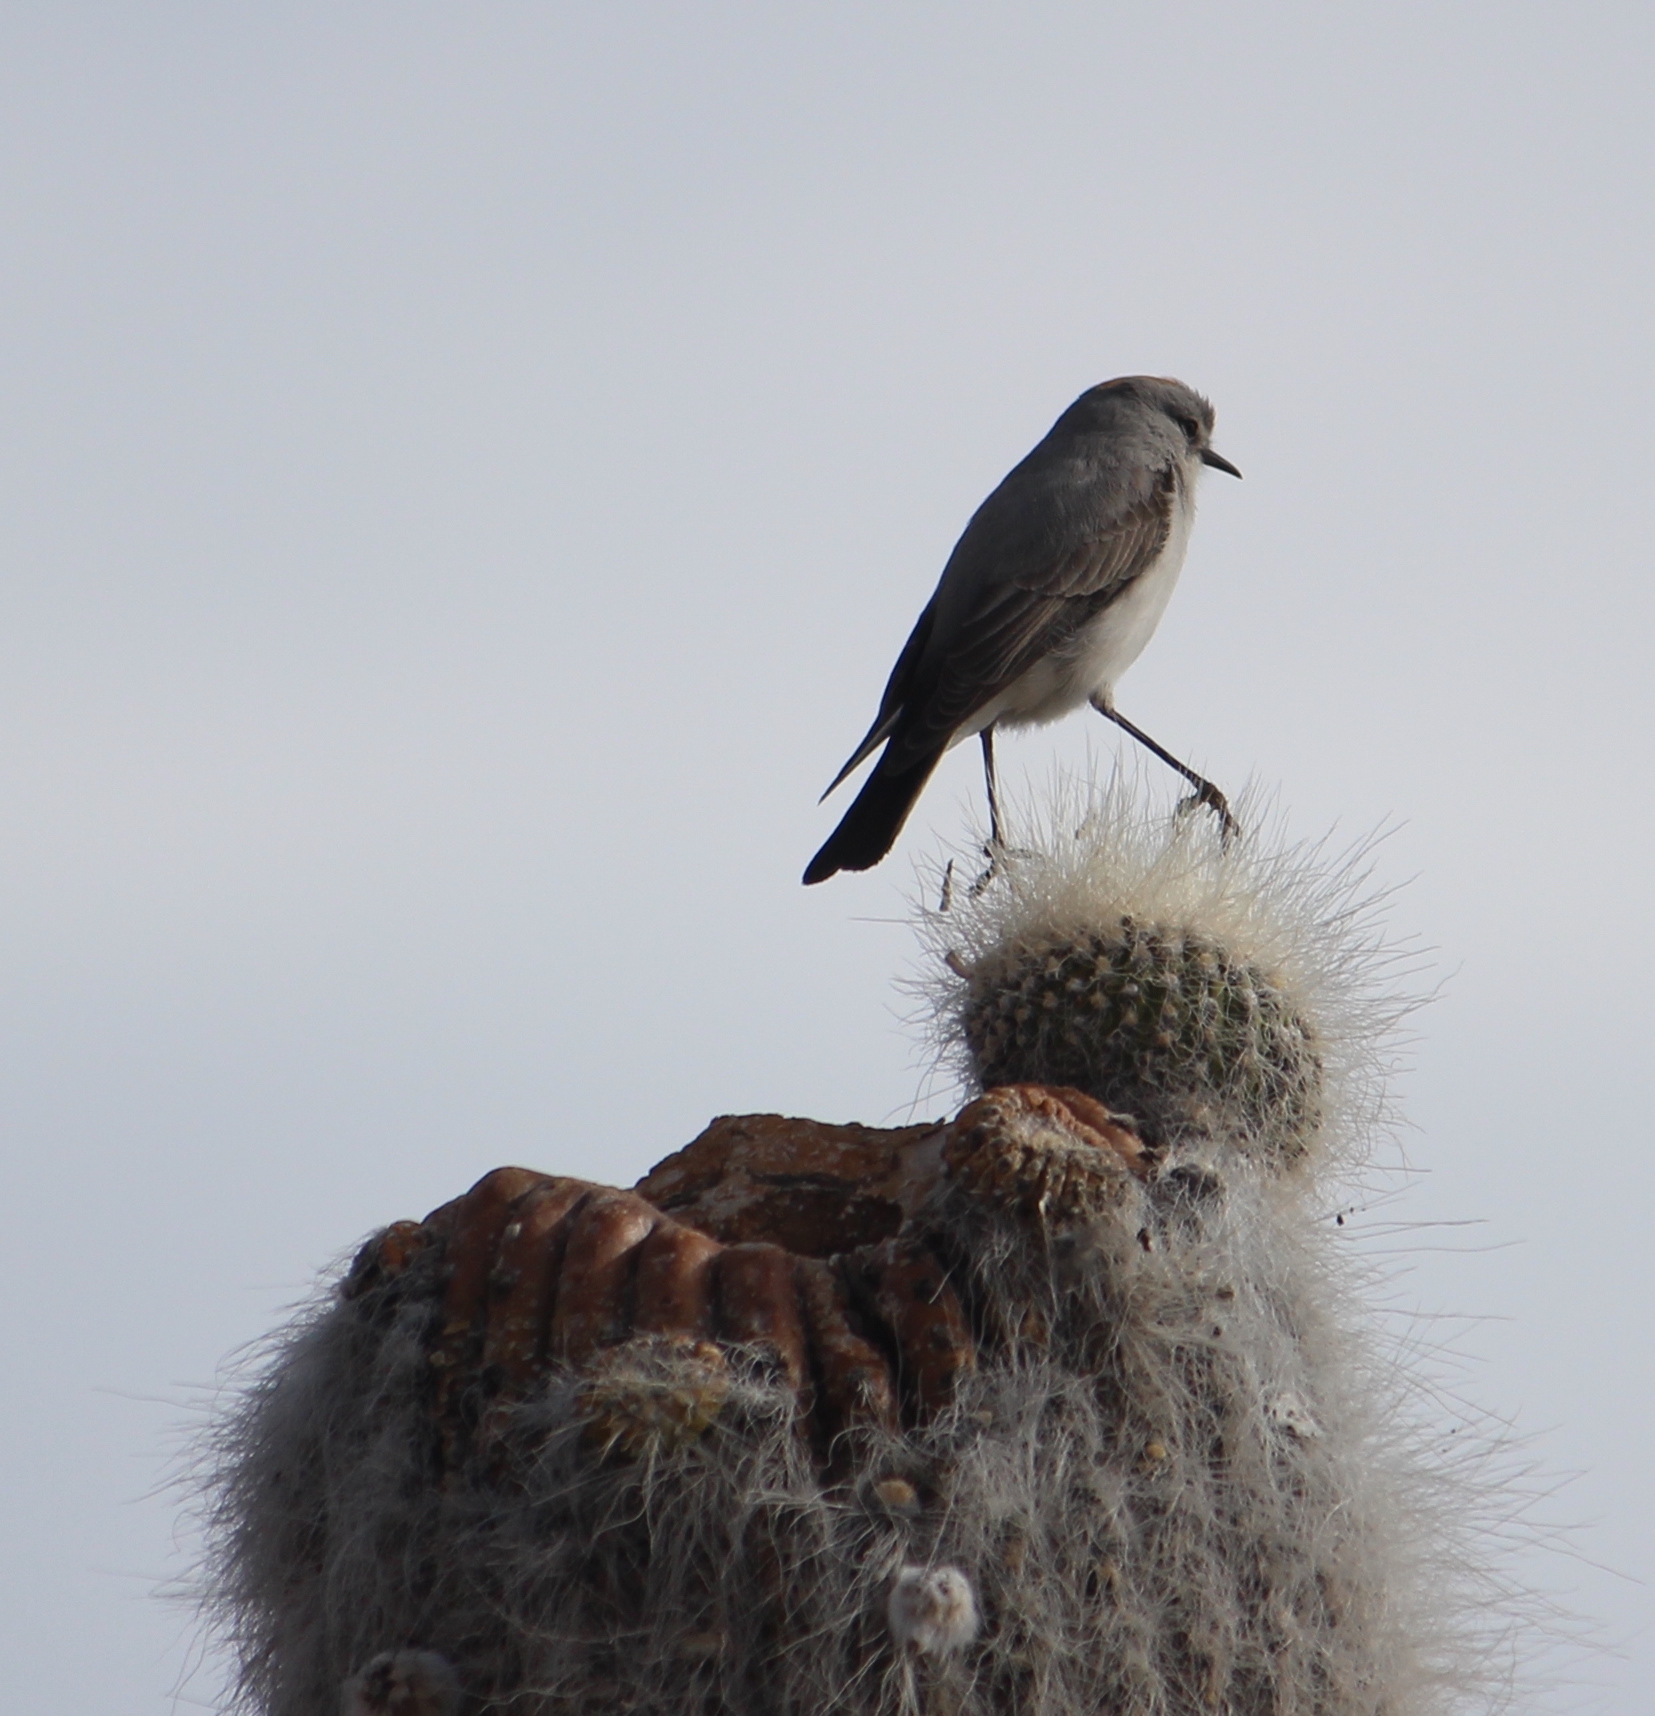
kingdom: Animalia
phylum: Chordata
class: Aves
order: Passeriformes
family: Tyrannidae
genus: Muscisaxicola
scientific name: Muscisaxicola rufivertex
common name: Rufous-naped ground tyrant
